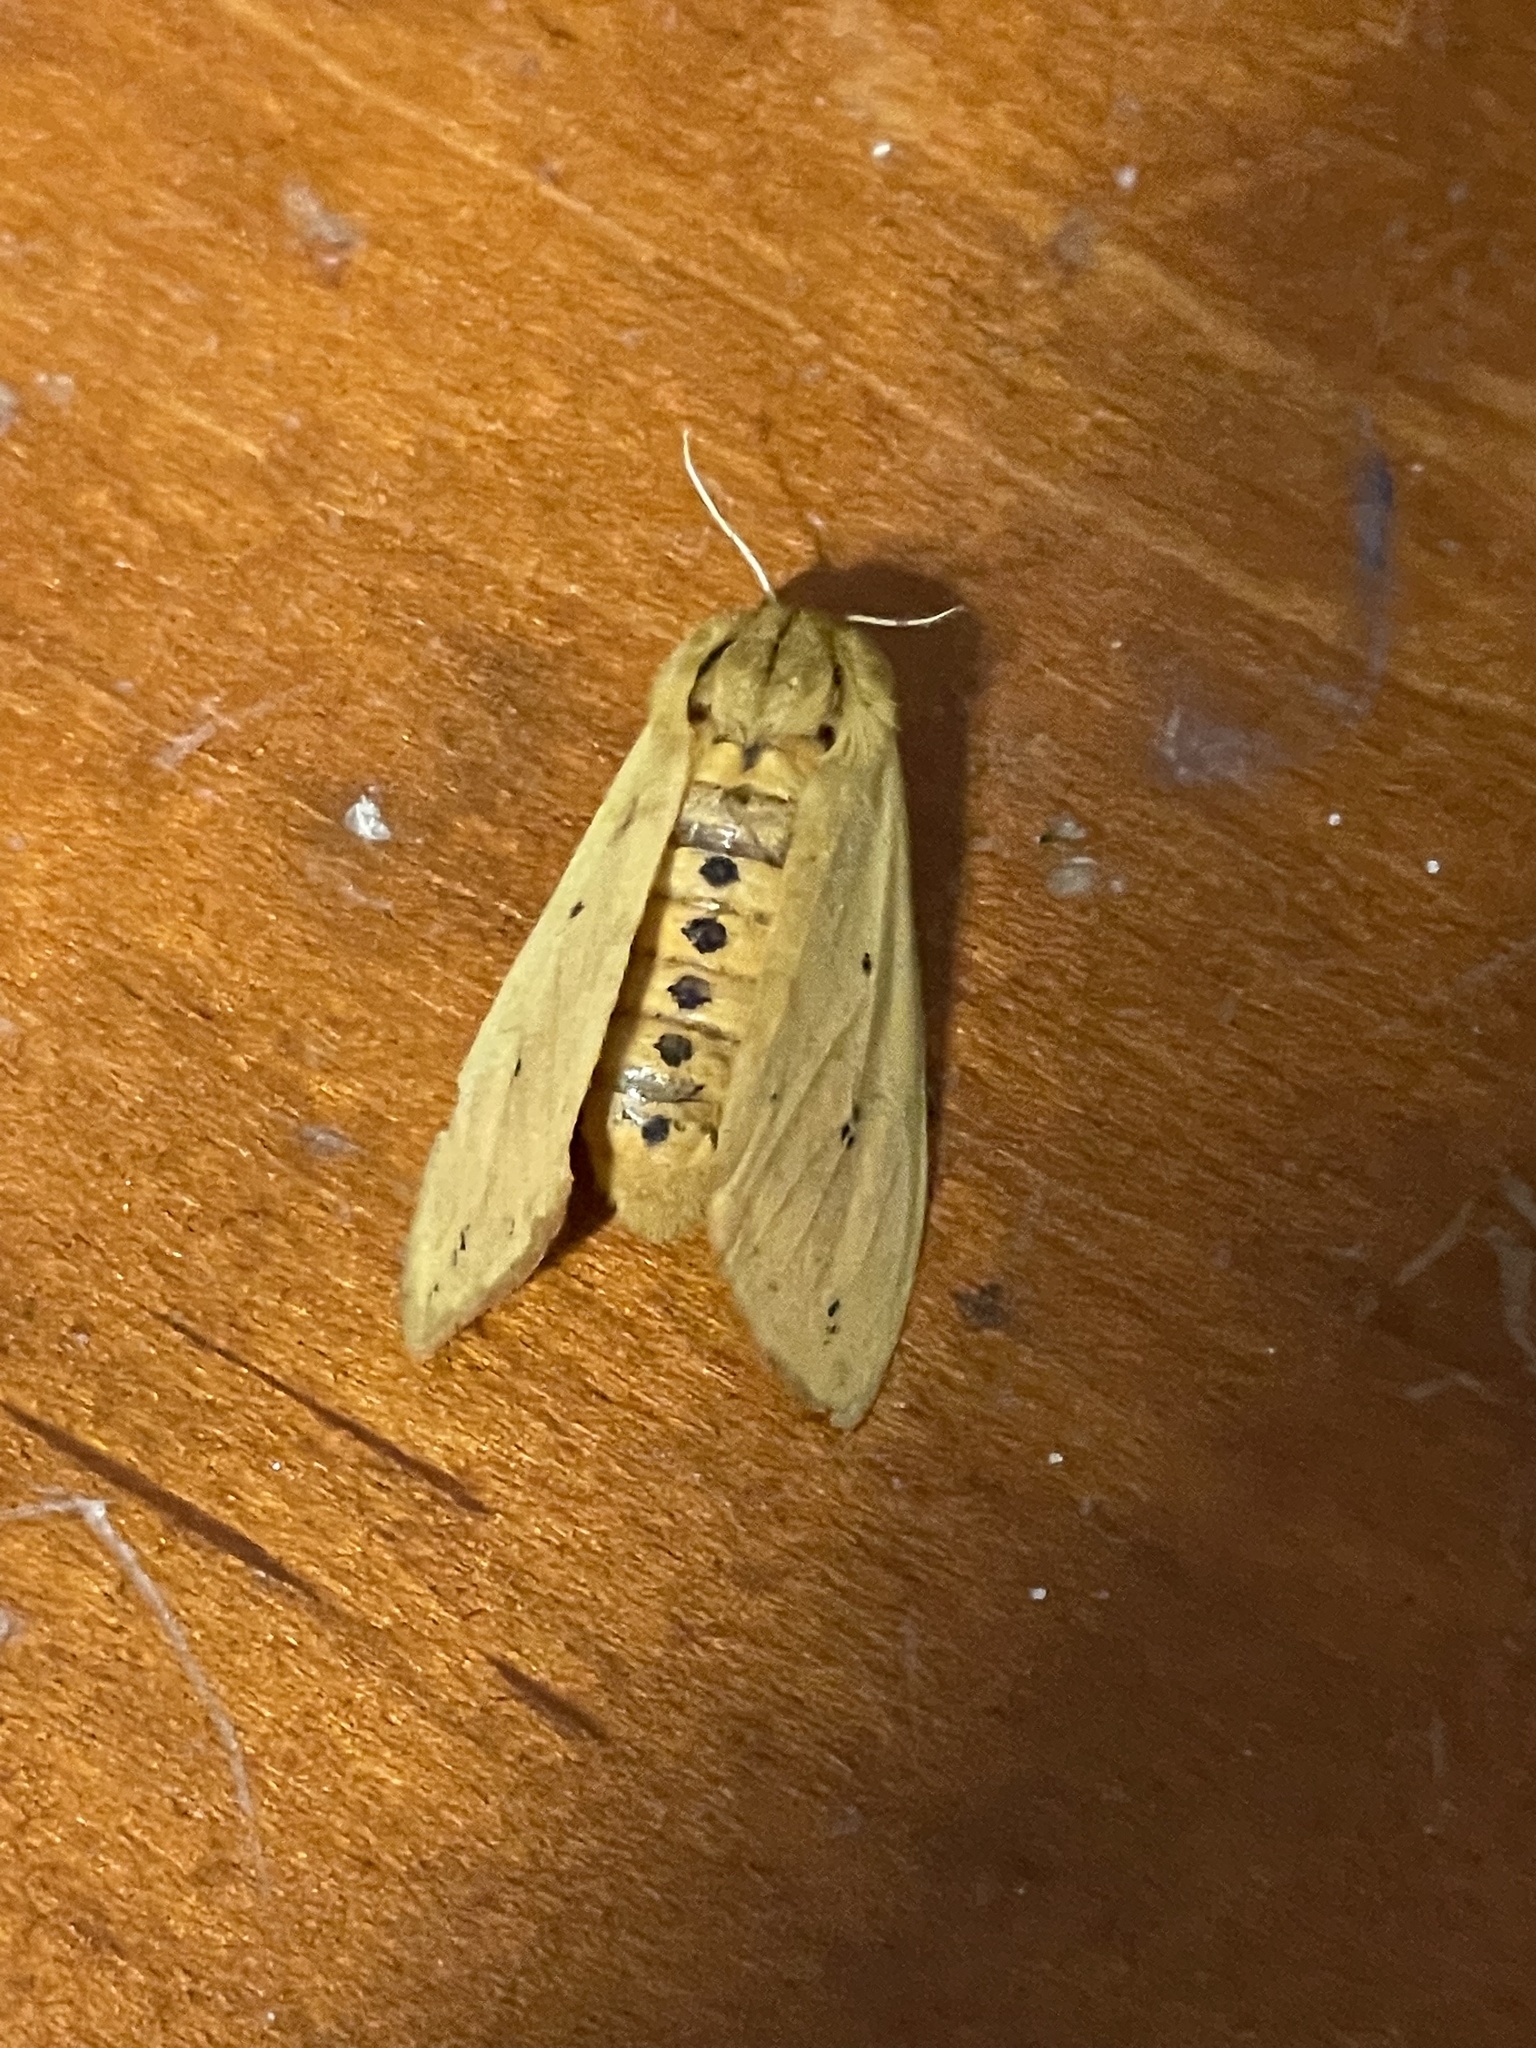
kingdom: Animalia
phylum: Arthropoda
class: Insecta
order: Lepidoptera
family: Erebidae
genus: Pyrrharctia
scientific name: Pyrrharctia isabella
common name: Isabella tiger moth
